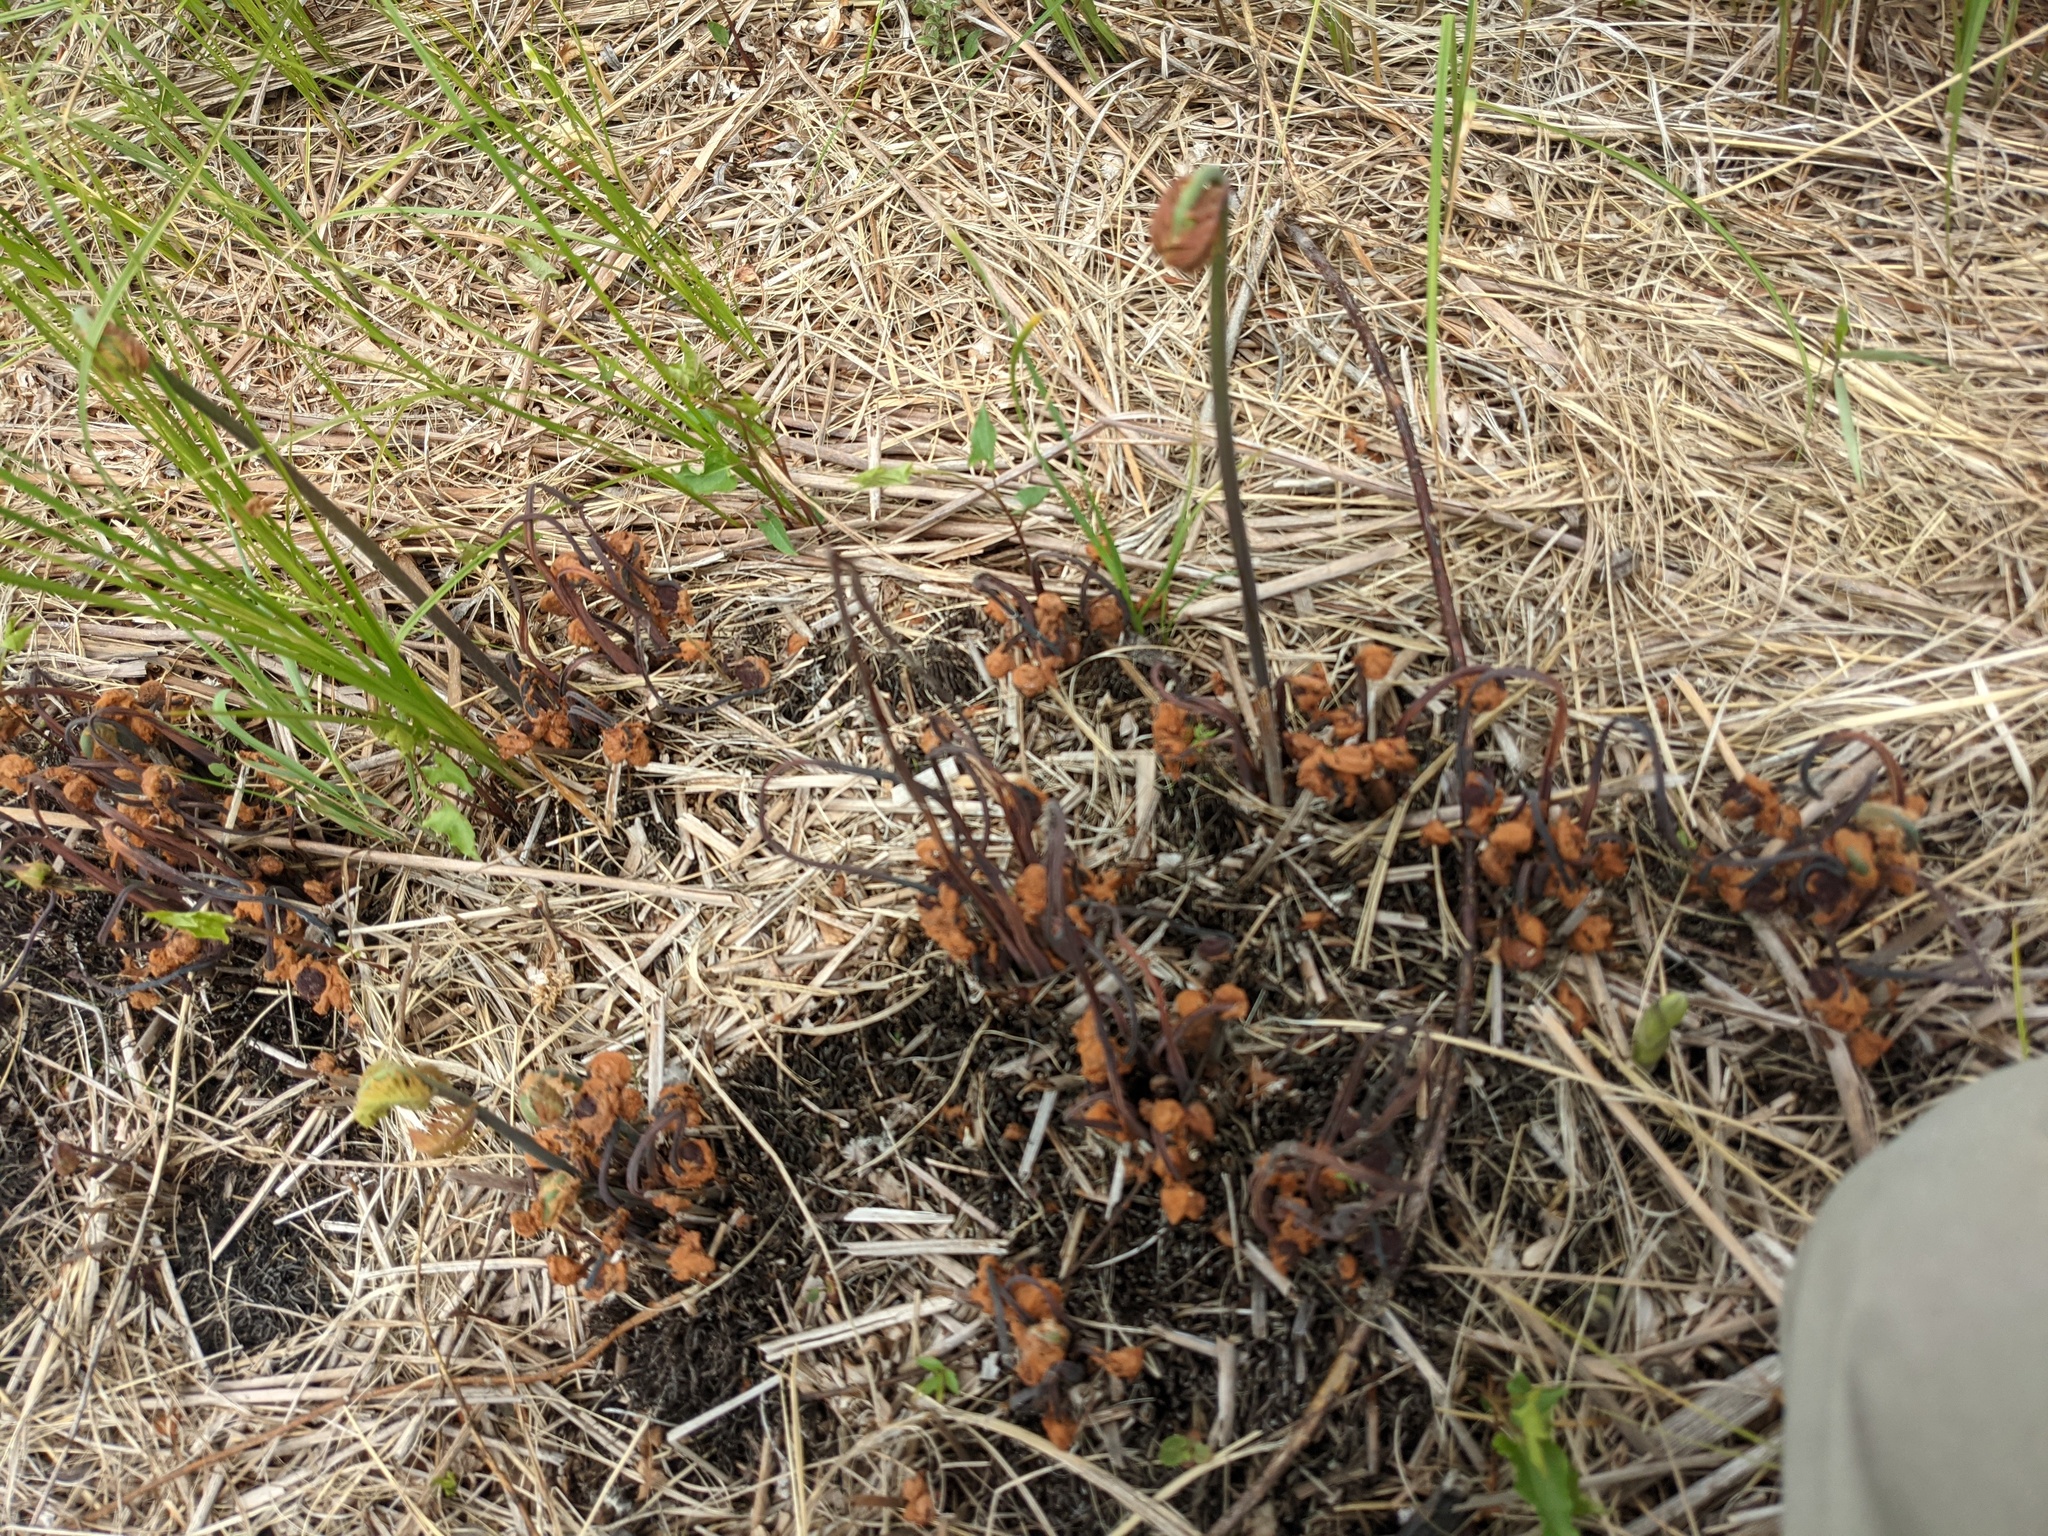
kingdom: Plantae
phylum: Tracheophyta
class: Polypodiopsida
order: Osmundales
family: Osmundaceae
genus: Osmunda
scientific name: Osmunda spectabilis
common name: American royal fern
